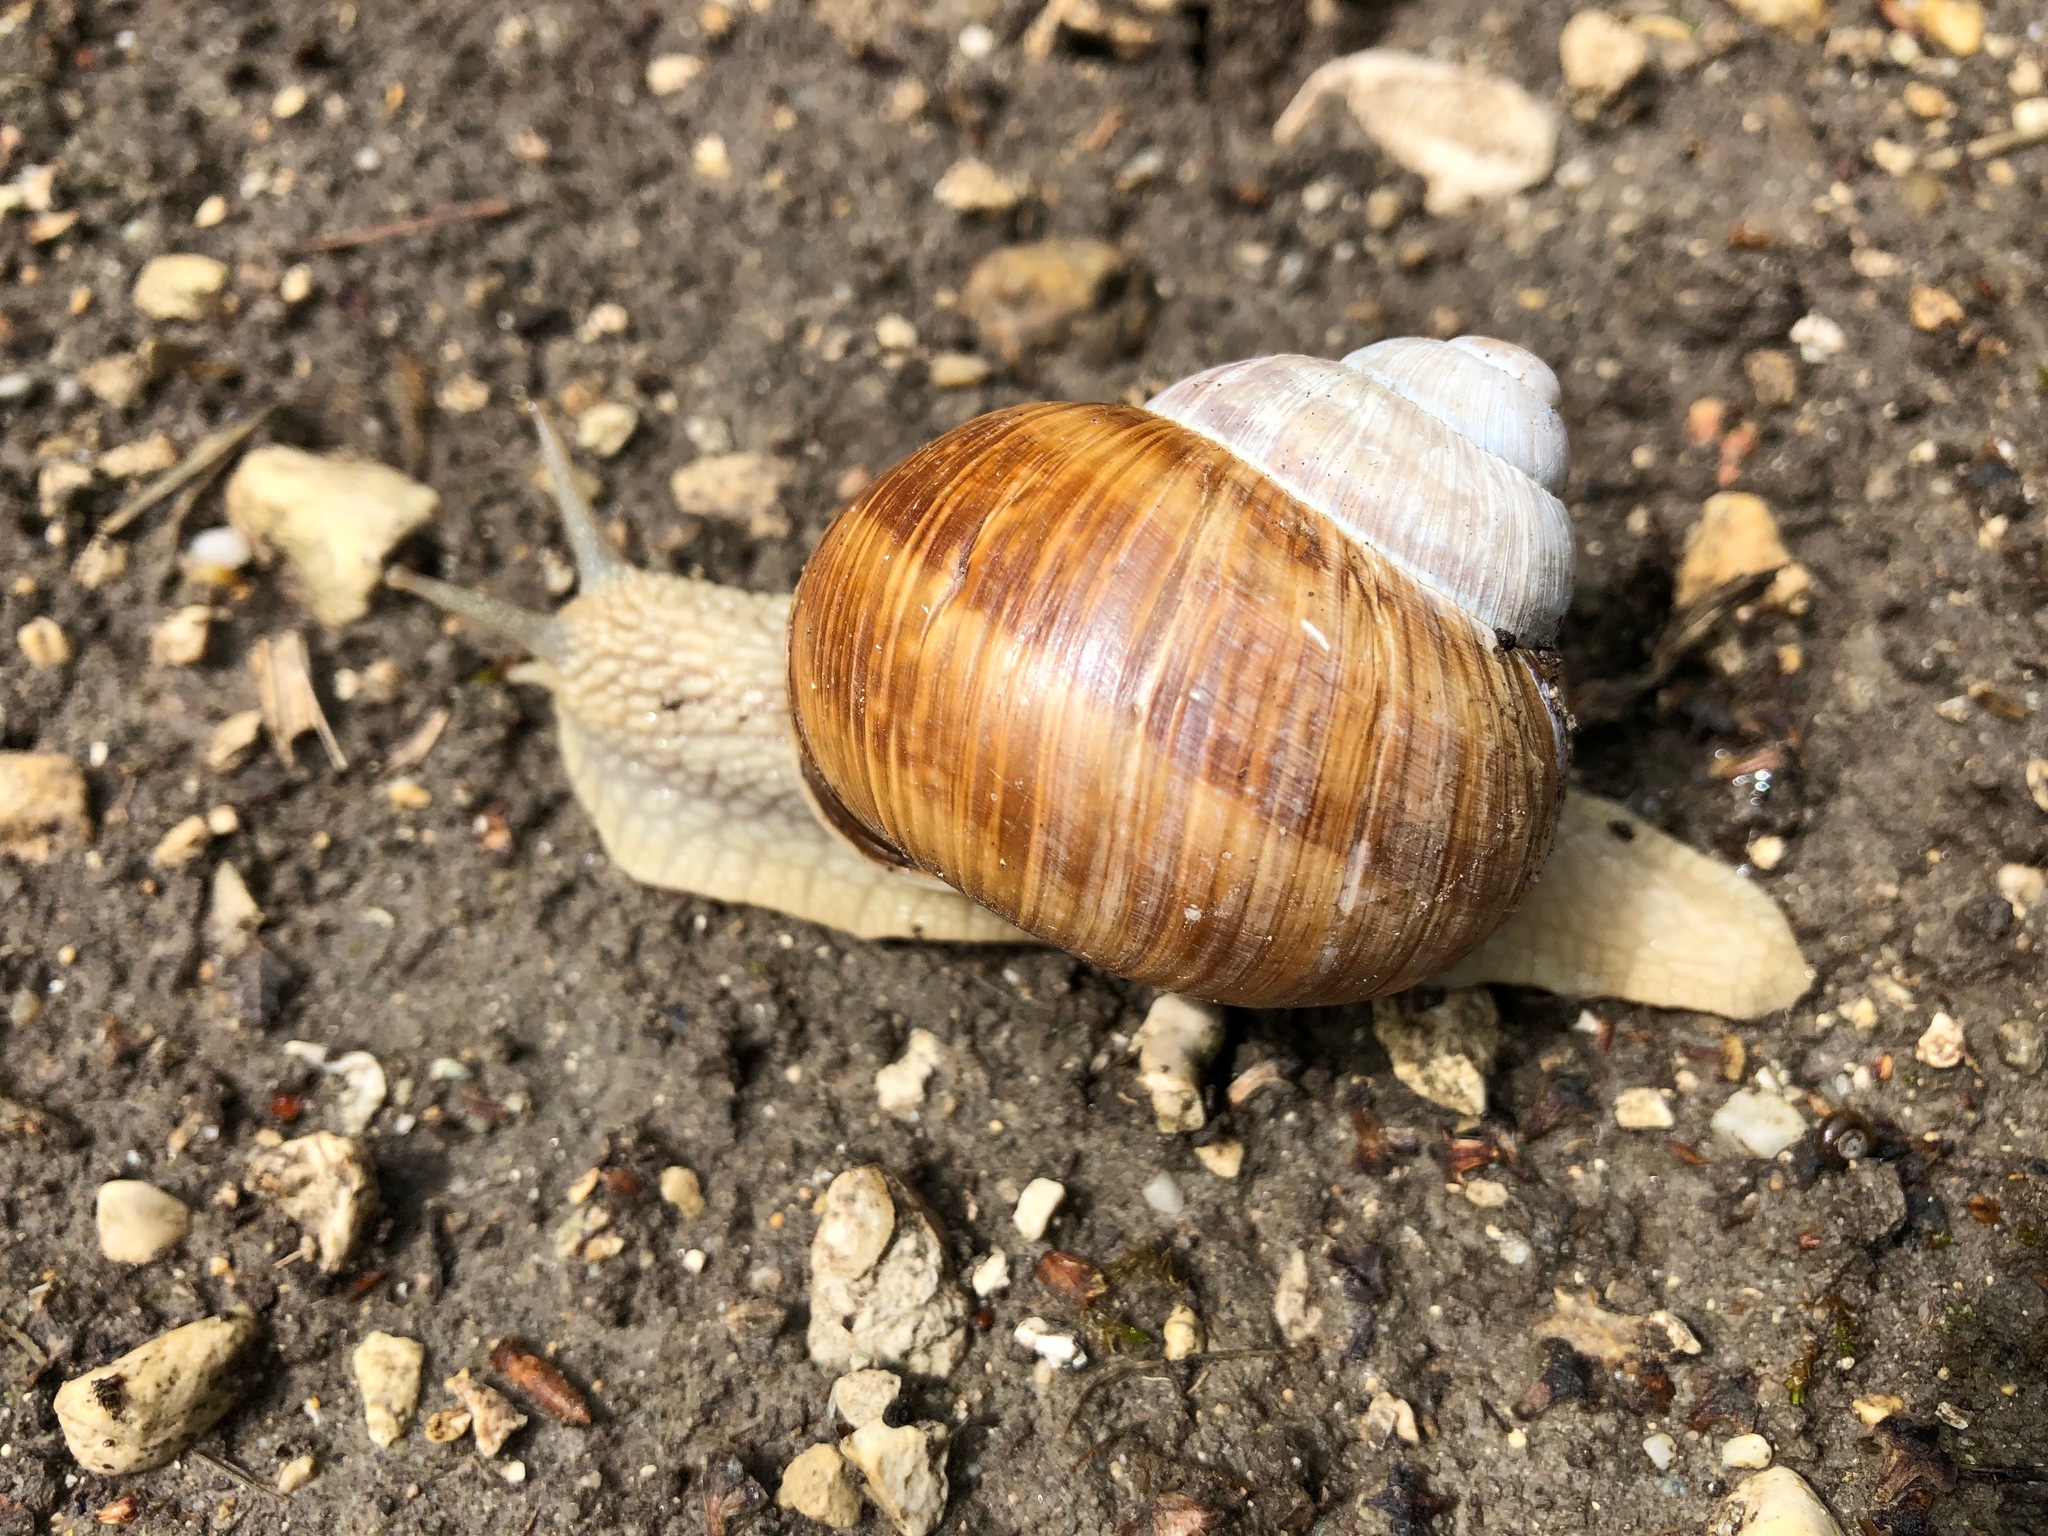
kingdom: Animalia
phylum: Mollusca
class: Gastropoda
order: Stylommatophora
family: Helicidae
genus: Helix
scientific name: Helix pomatia
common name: Roman snail
